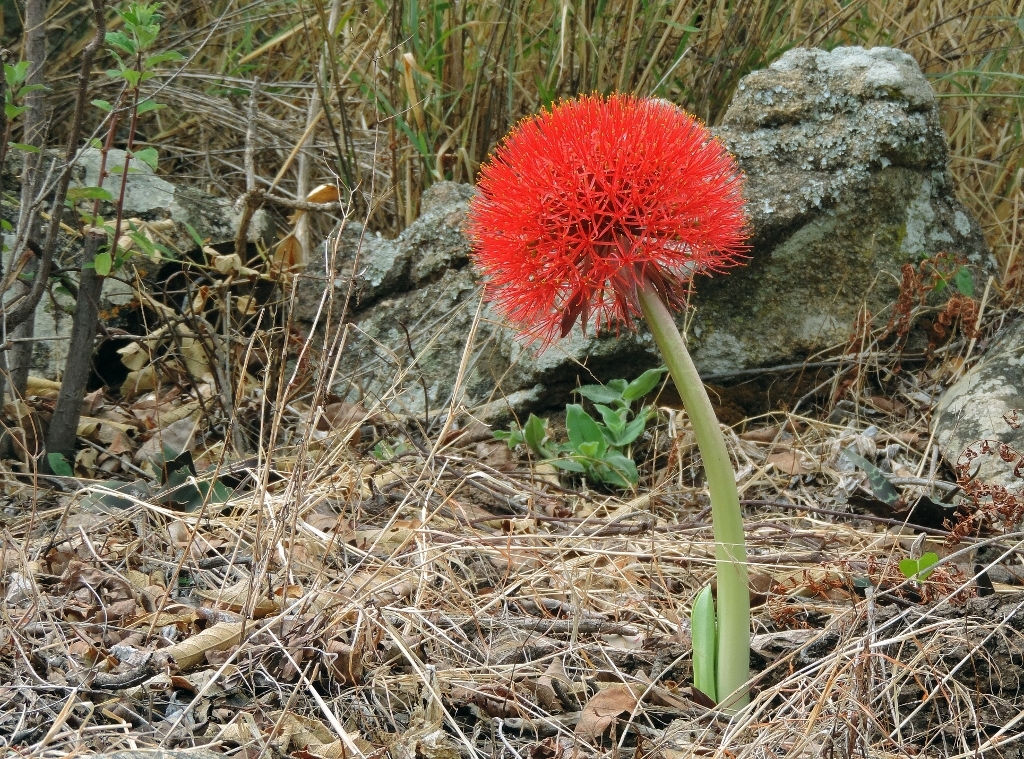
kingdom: Plantae
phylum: Tracheophyta
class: Liliopsida
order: Asparagales
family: Amaryllidaceae
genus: Scadoxus
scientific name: Scadoxus multiflorus
